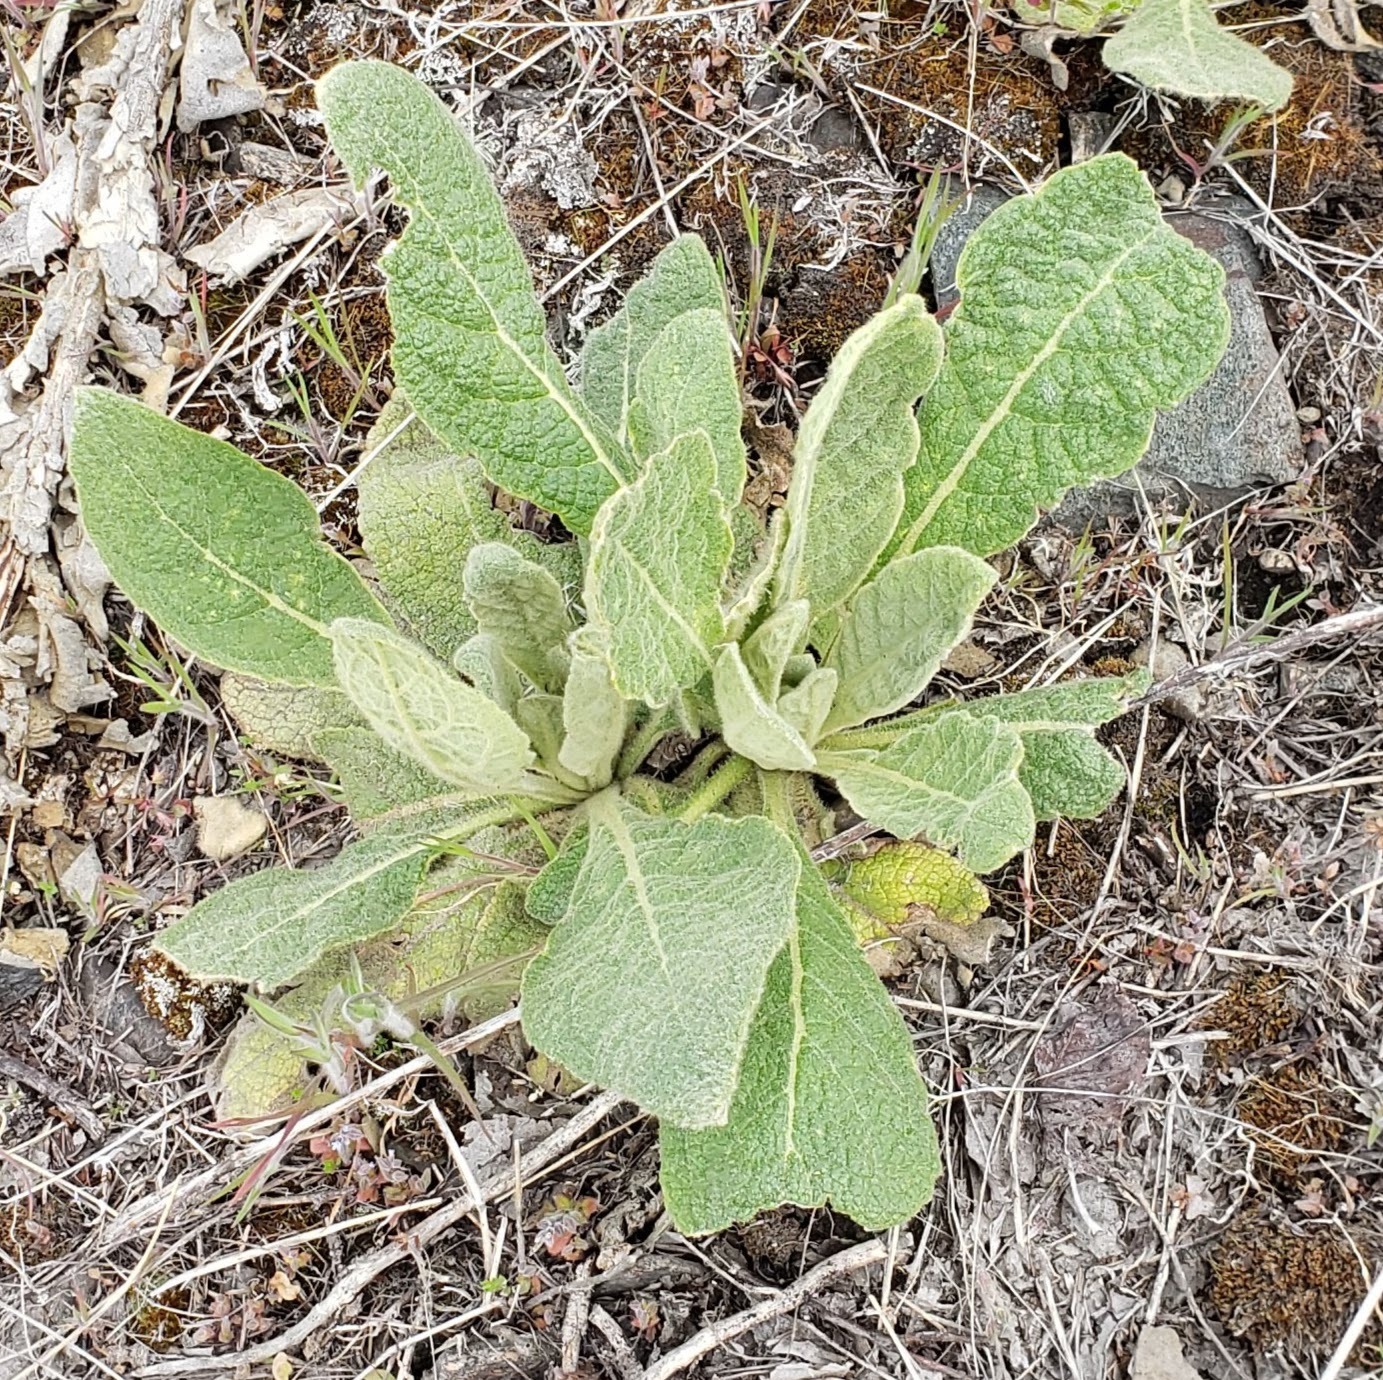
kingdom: Plantae
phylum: Tracheophyta
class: Magnoliopsida
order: Lamiales
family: Scrophulariaceae
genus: Verbascum
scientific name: Verbascum thapsus
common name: Common mullein
